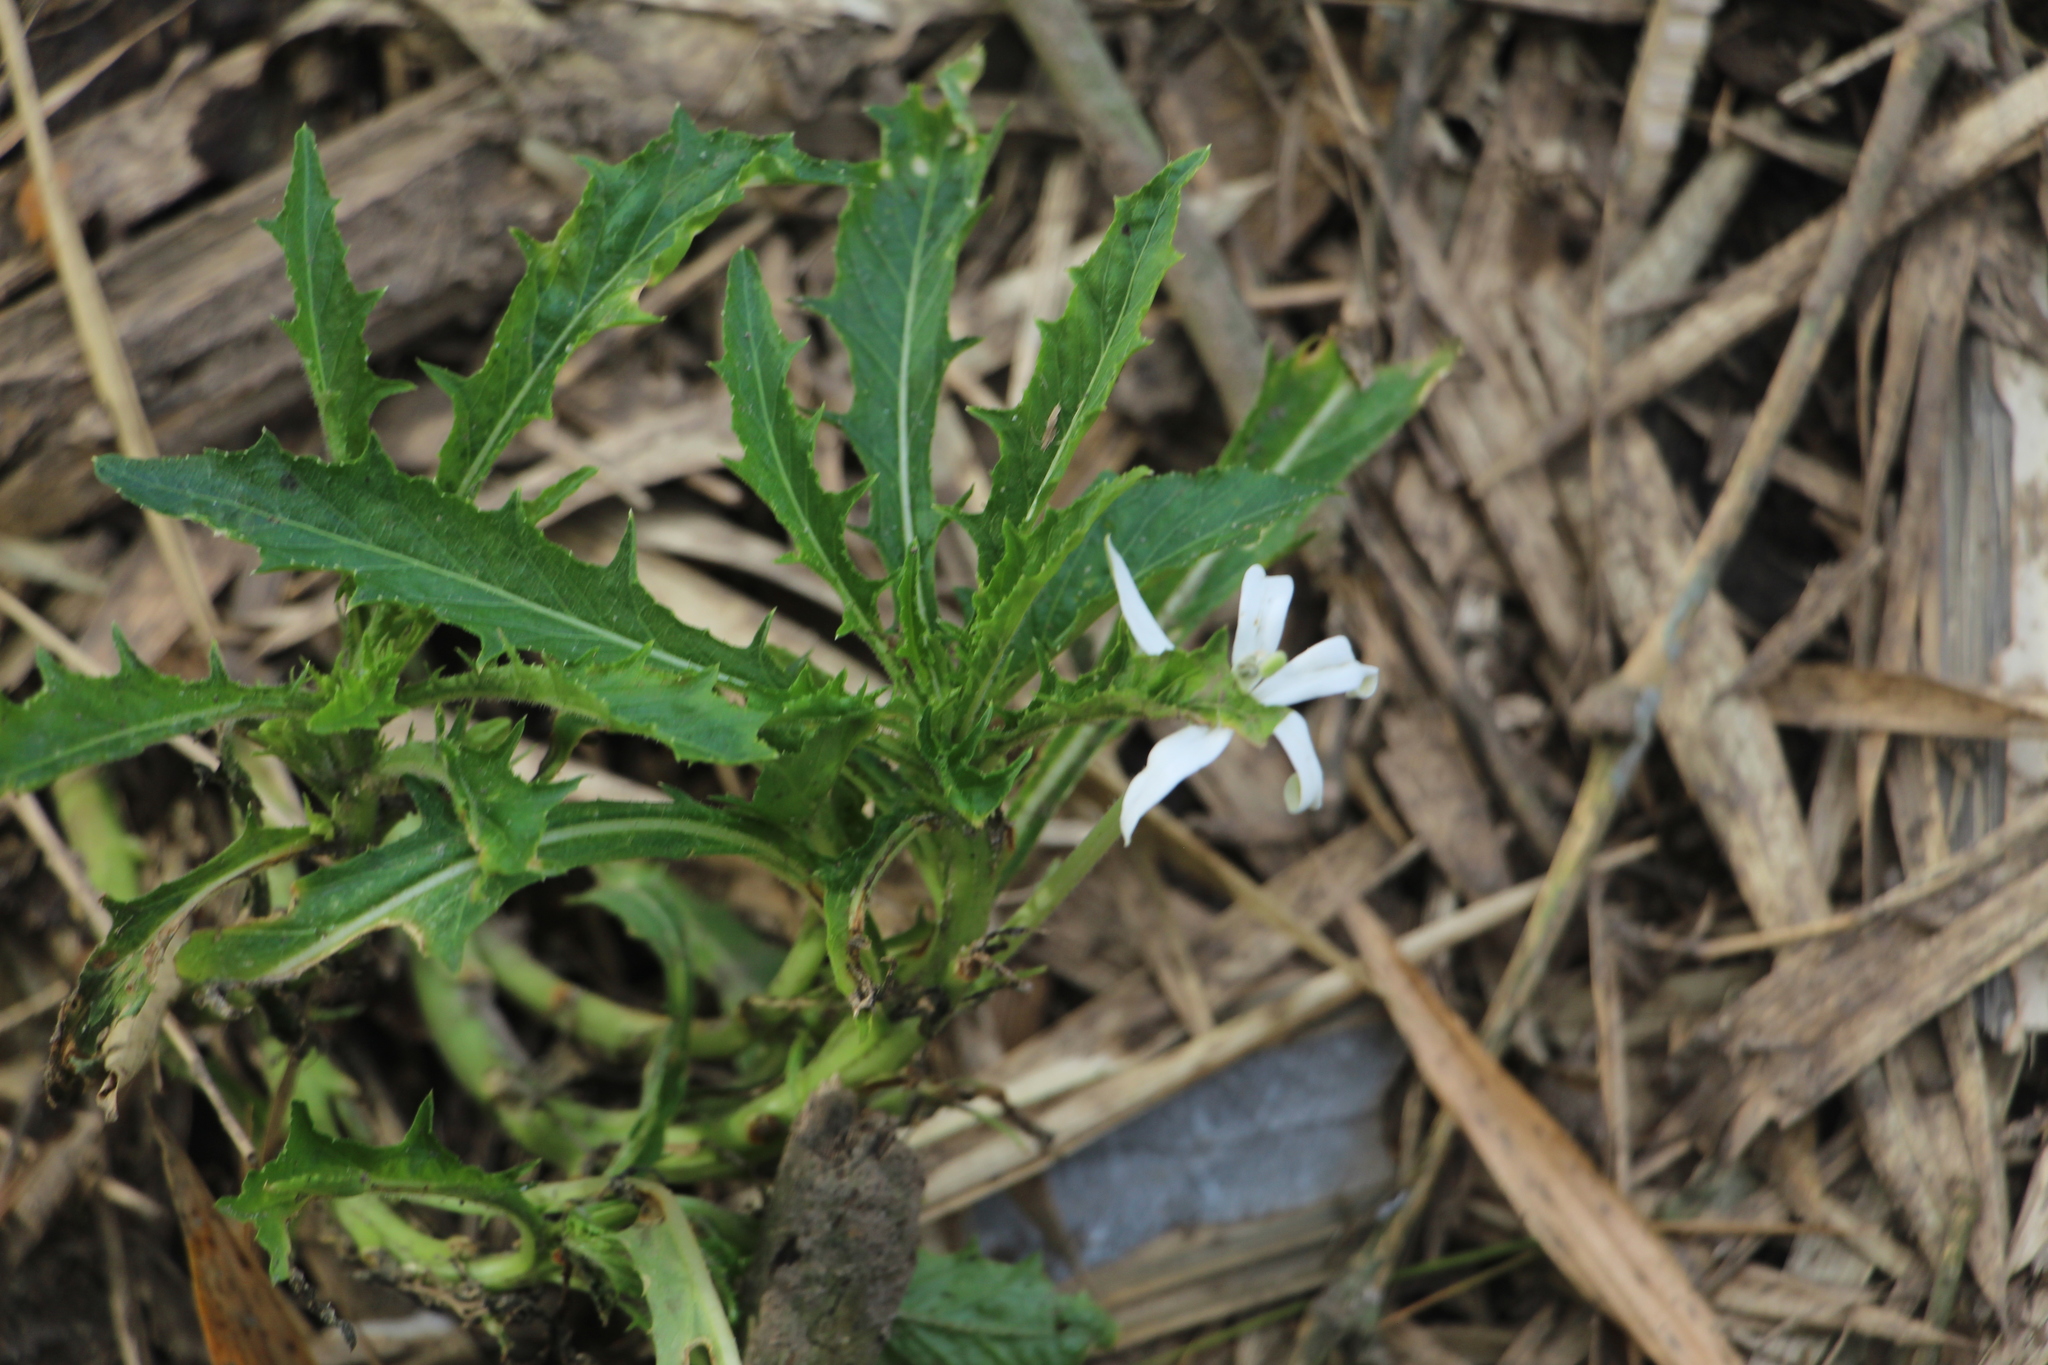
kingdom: Plantae
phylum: Tracheophyta
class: Magnoliopsida
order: Asterales
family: Campanulaceae
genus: Hippobroma
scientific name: Hippobroma longiflora
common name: Madamfate
